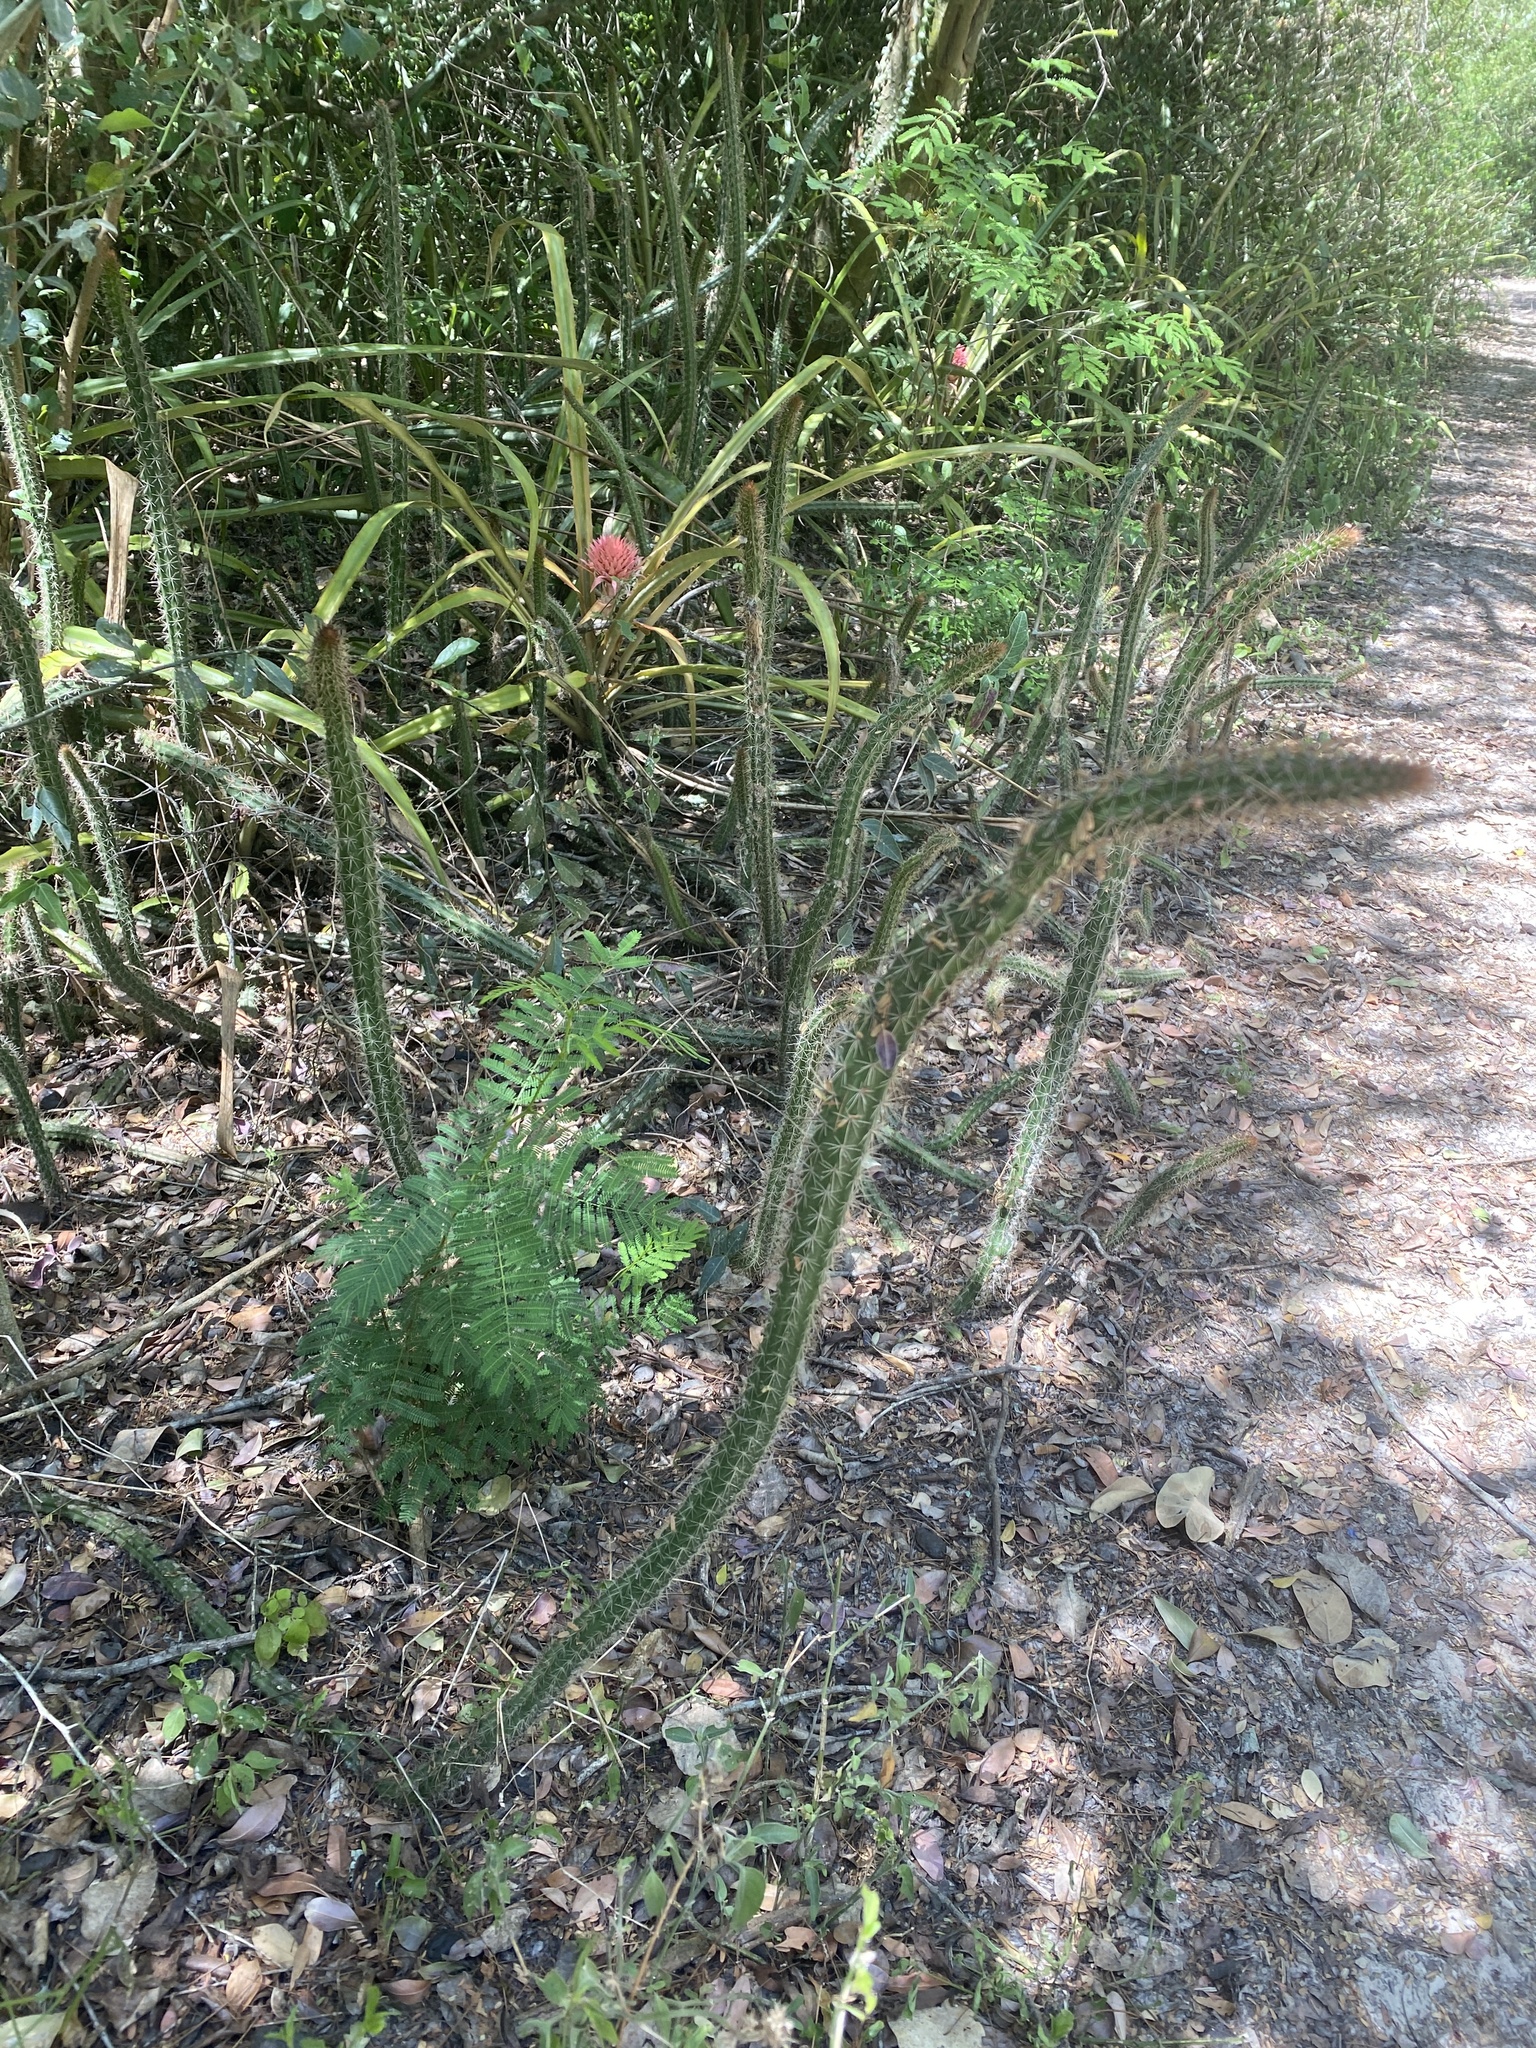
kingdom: Plantae
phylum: Tracheophyta
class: Magnoliopsida
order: Caryophyllales
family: Cactaceae
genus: Praecereus
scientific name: Praecereus euchlorus
